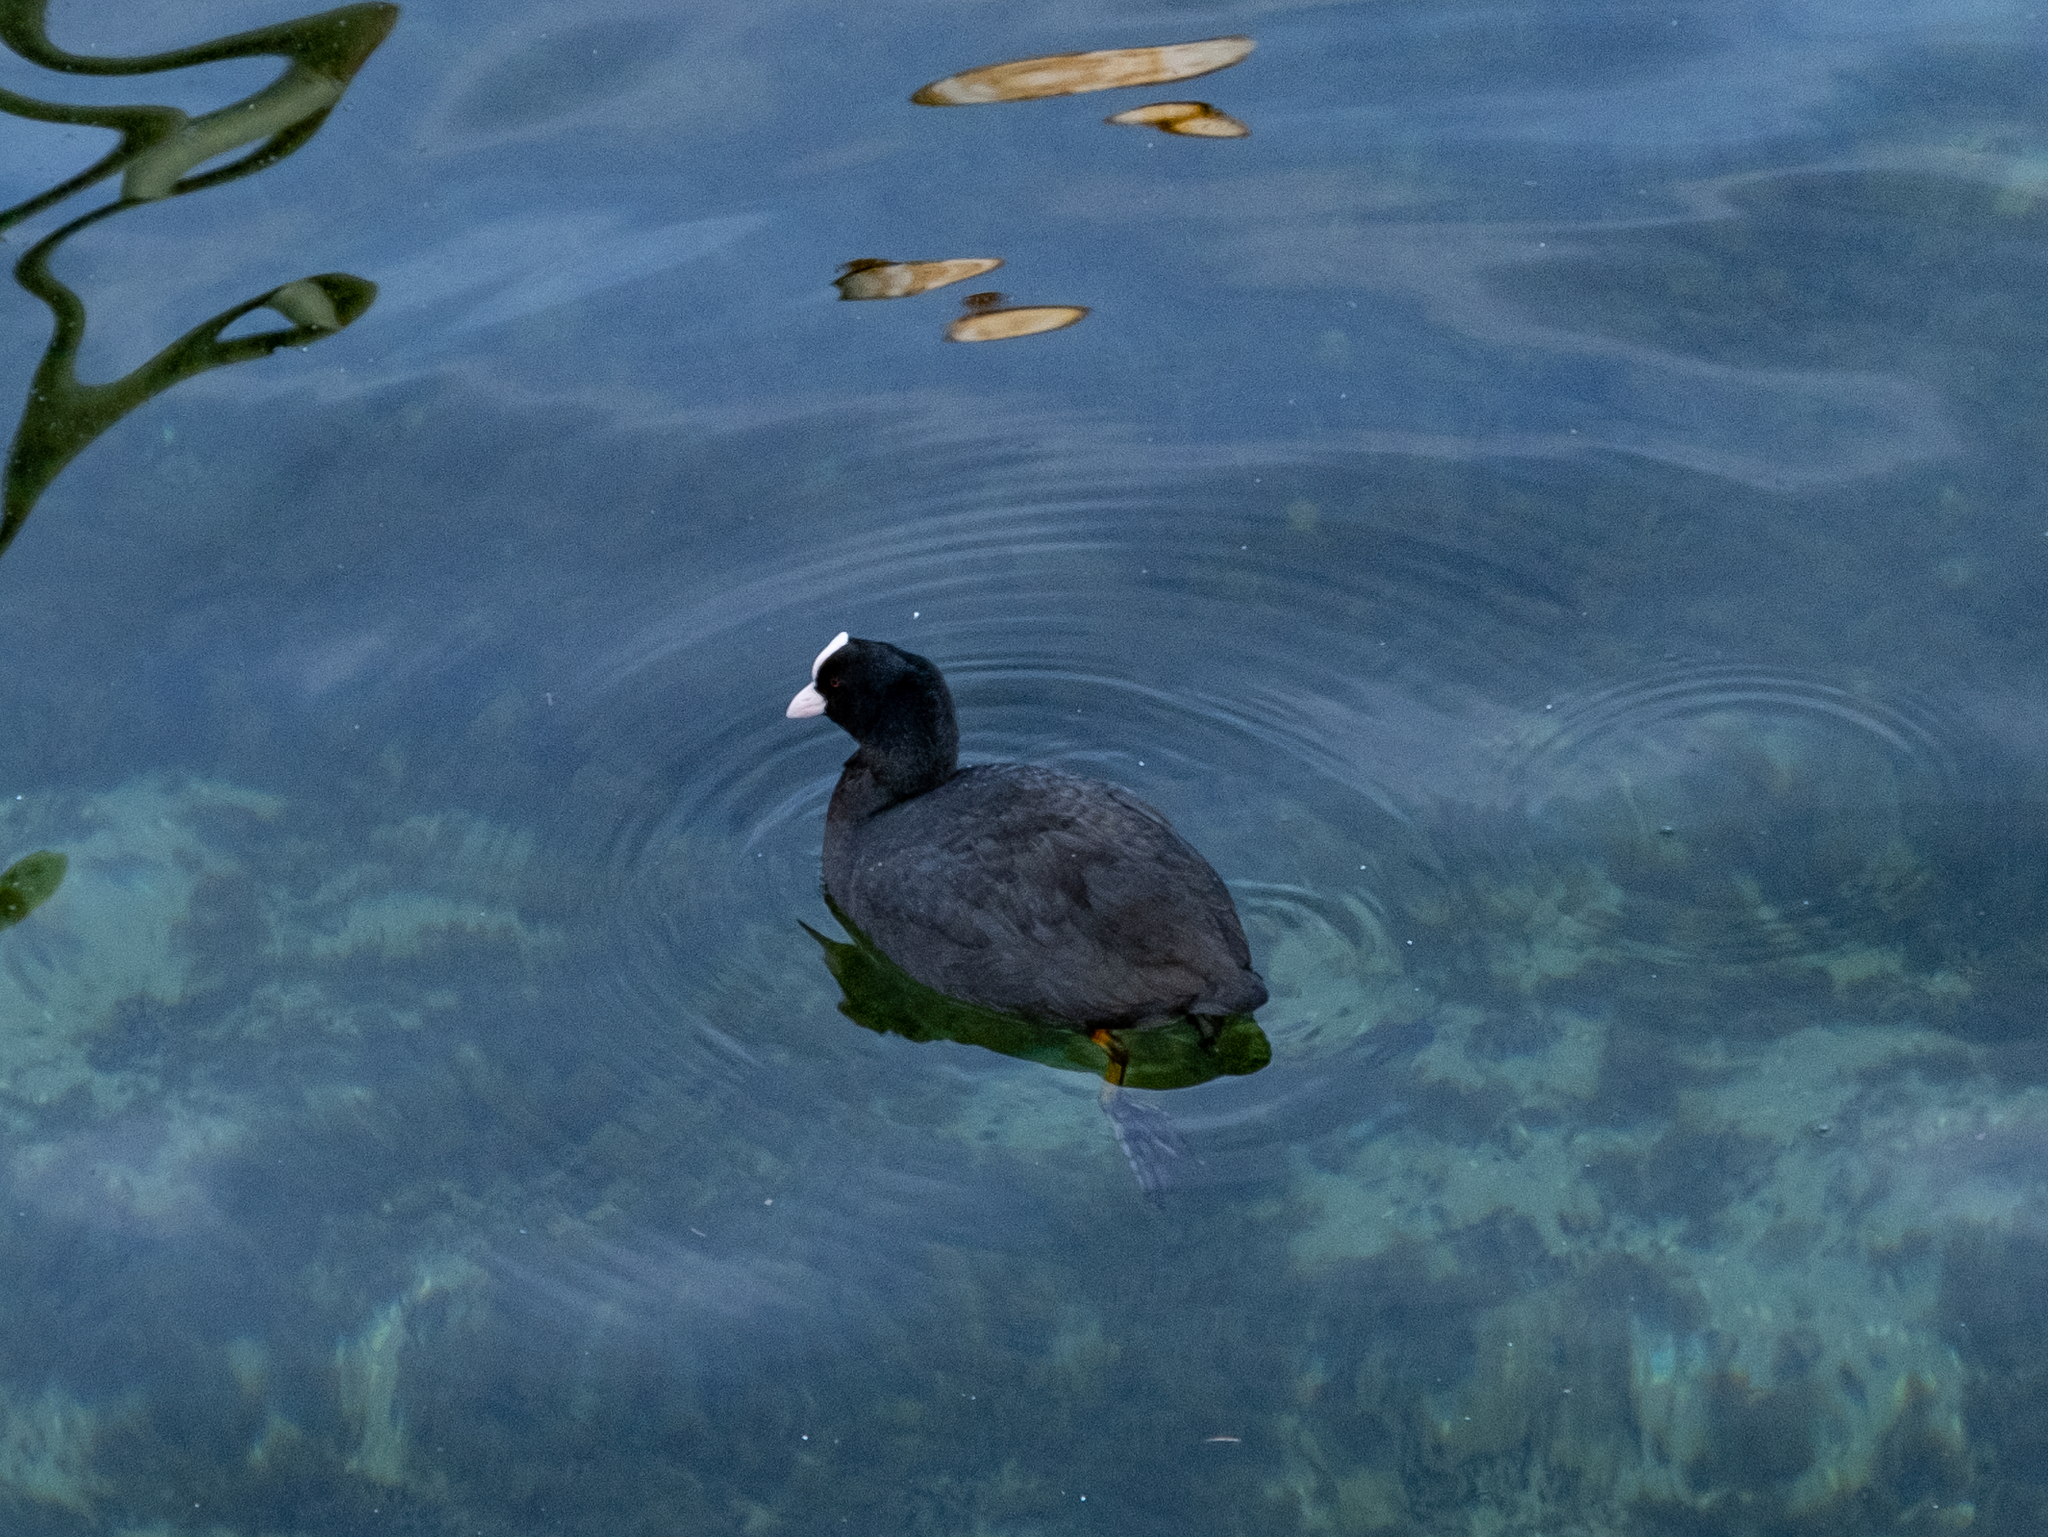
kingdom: Animalia
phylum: Chordata
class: Aves
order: Gruiformes
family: Rallidae
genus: Fulica
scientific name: Fulica atra
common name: Eurasian coot
